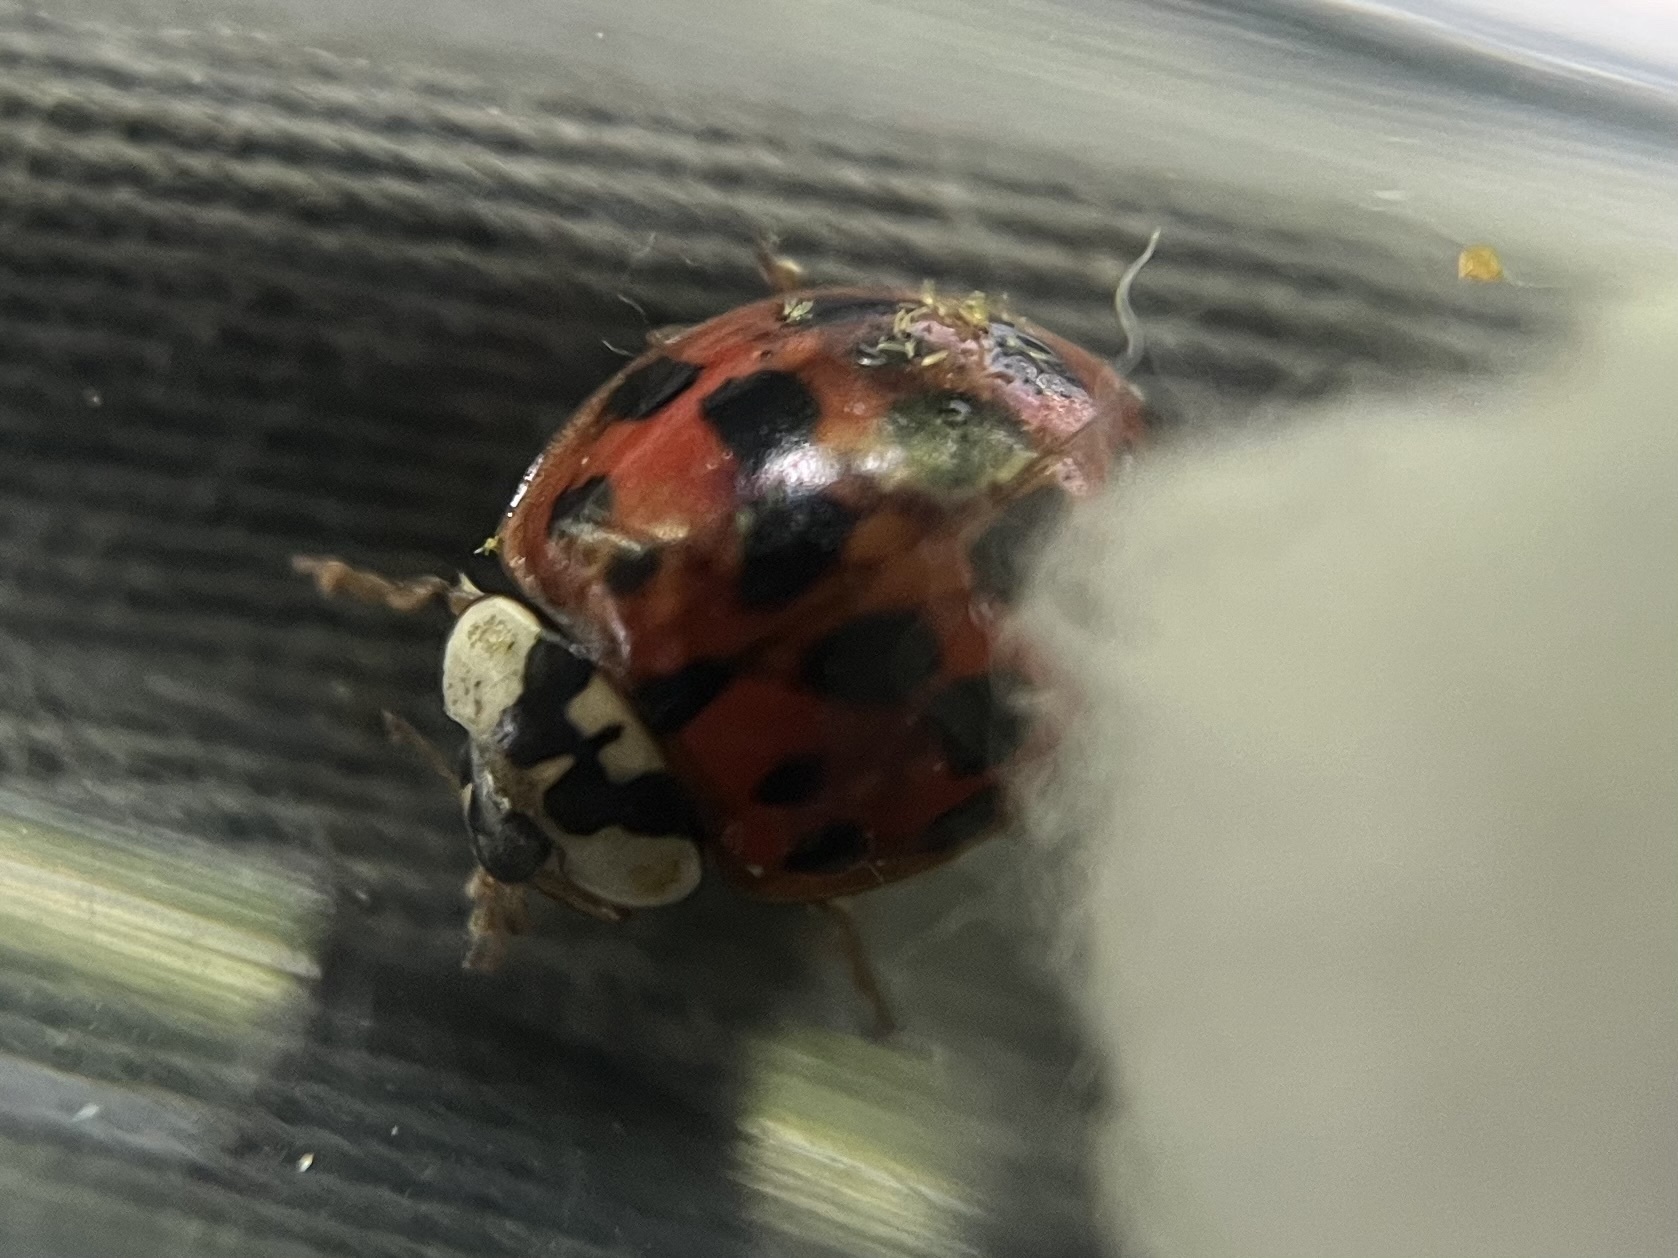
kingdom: Fungi
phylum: Ascomycota
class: Laboulbeniomycetes
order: Laboulbeniales
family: Laboulbeniaceae
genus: Hesperomyces
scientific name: Hesperomyces harmoniae
